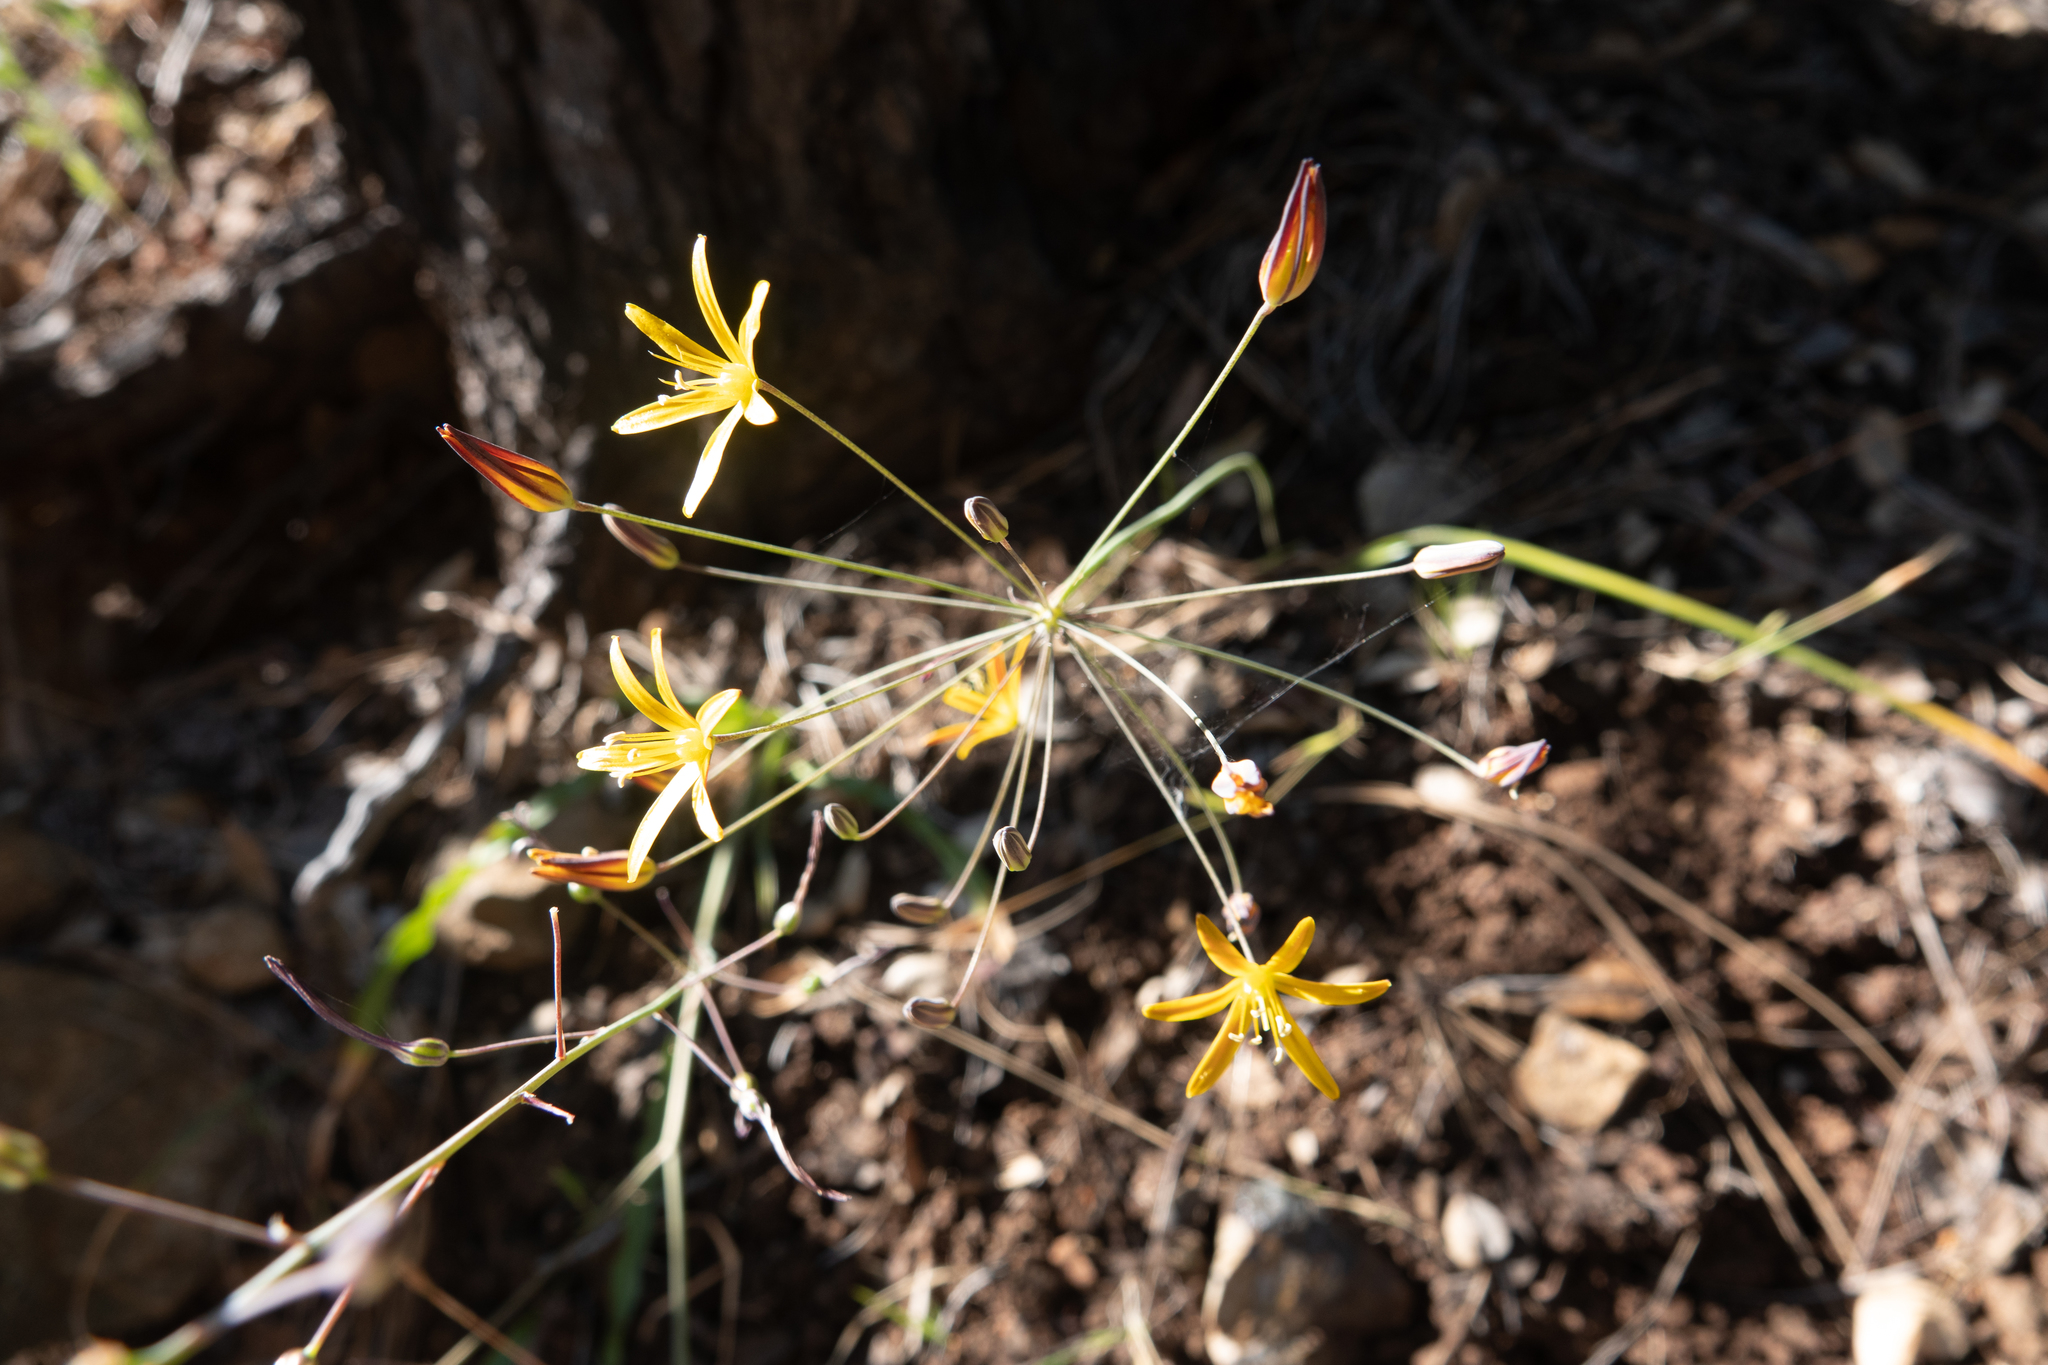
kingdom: Plantae
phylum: Tracheophyta
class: Liliopsida
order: Asparagales
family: Asparagaceae
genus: Bloomeria
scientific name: Bloomeria crocea
